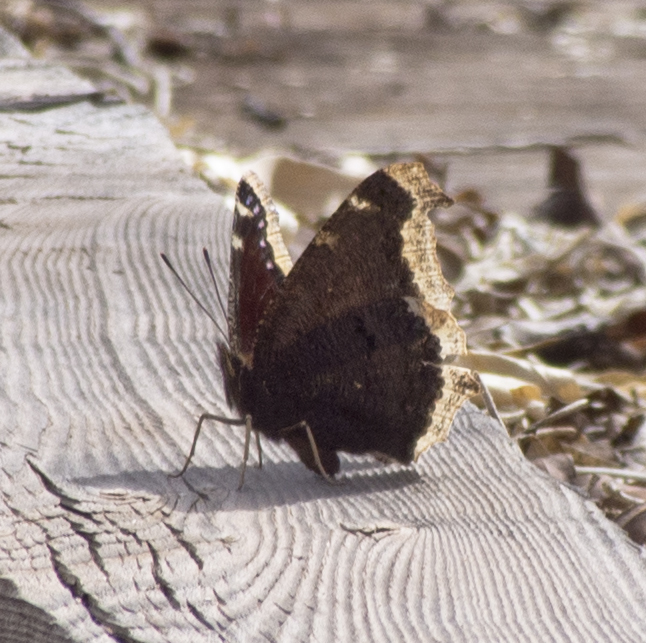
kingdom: Animalia
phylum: Arthropoda
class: Insecta
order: Lepidoptera
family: Nymphalidae
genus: Nymphalis
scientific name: Nymphalis antiopa
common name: Camberwell beauty
